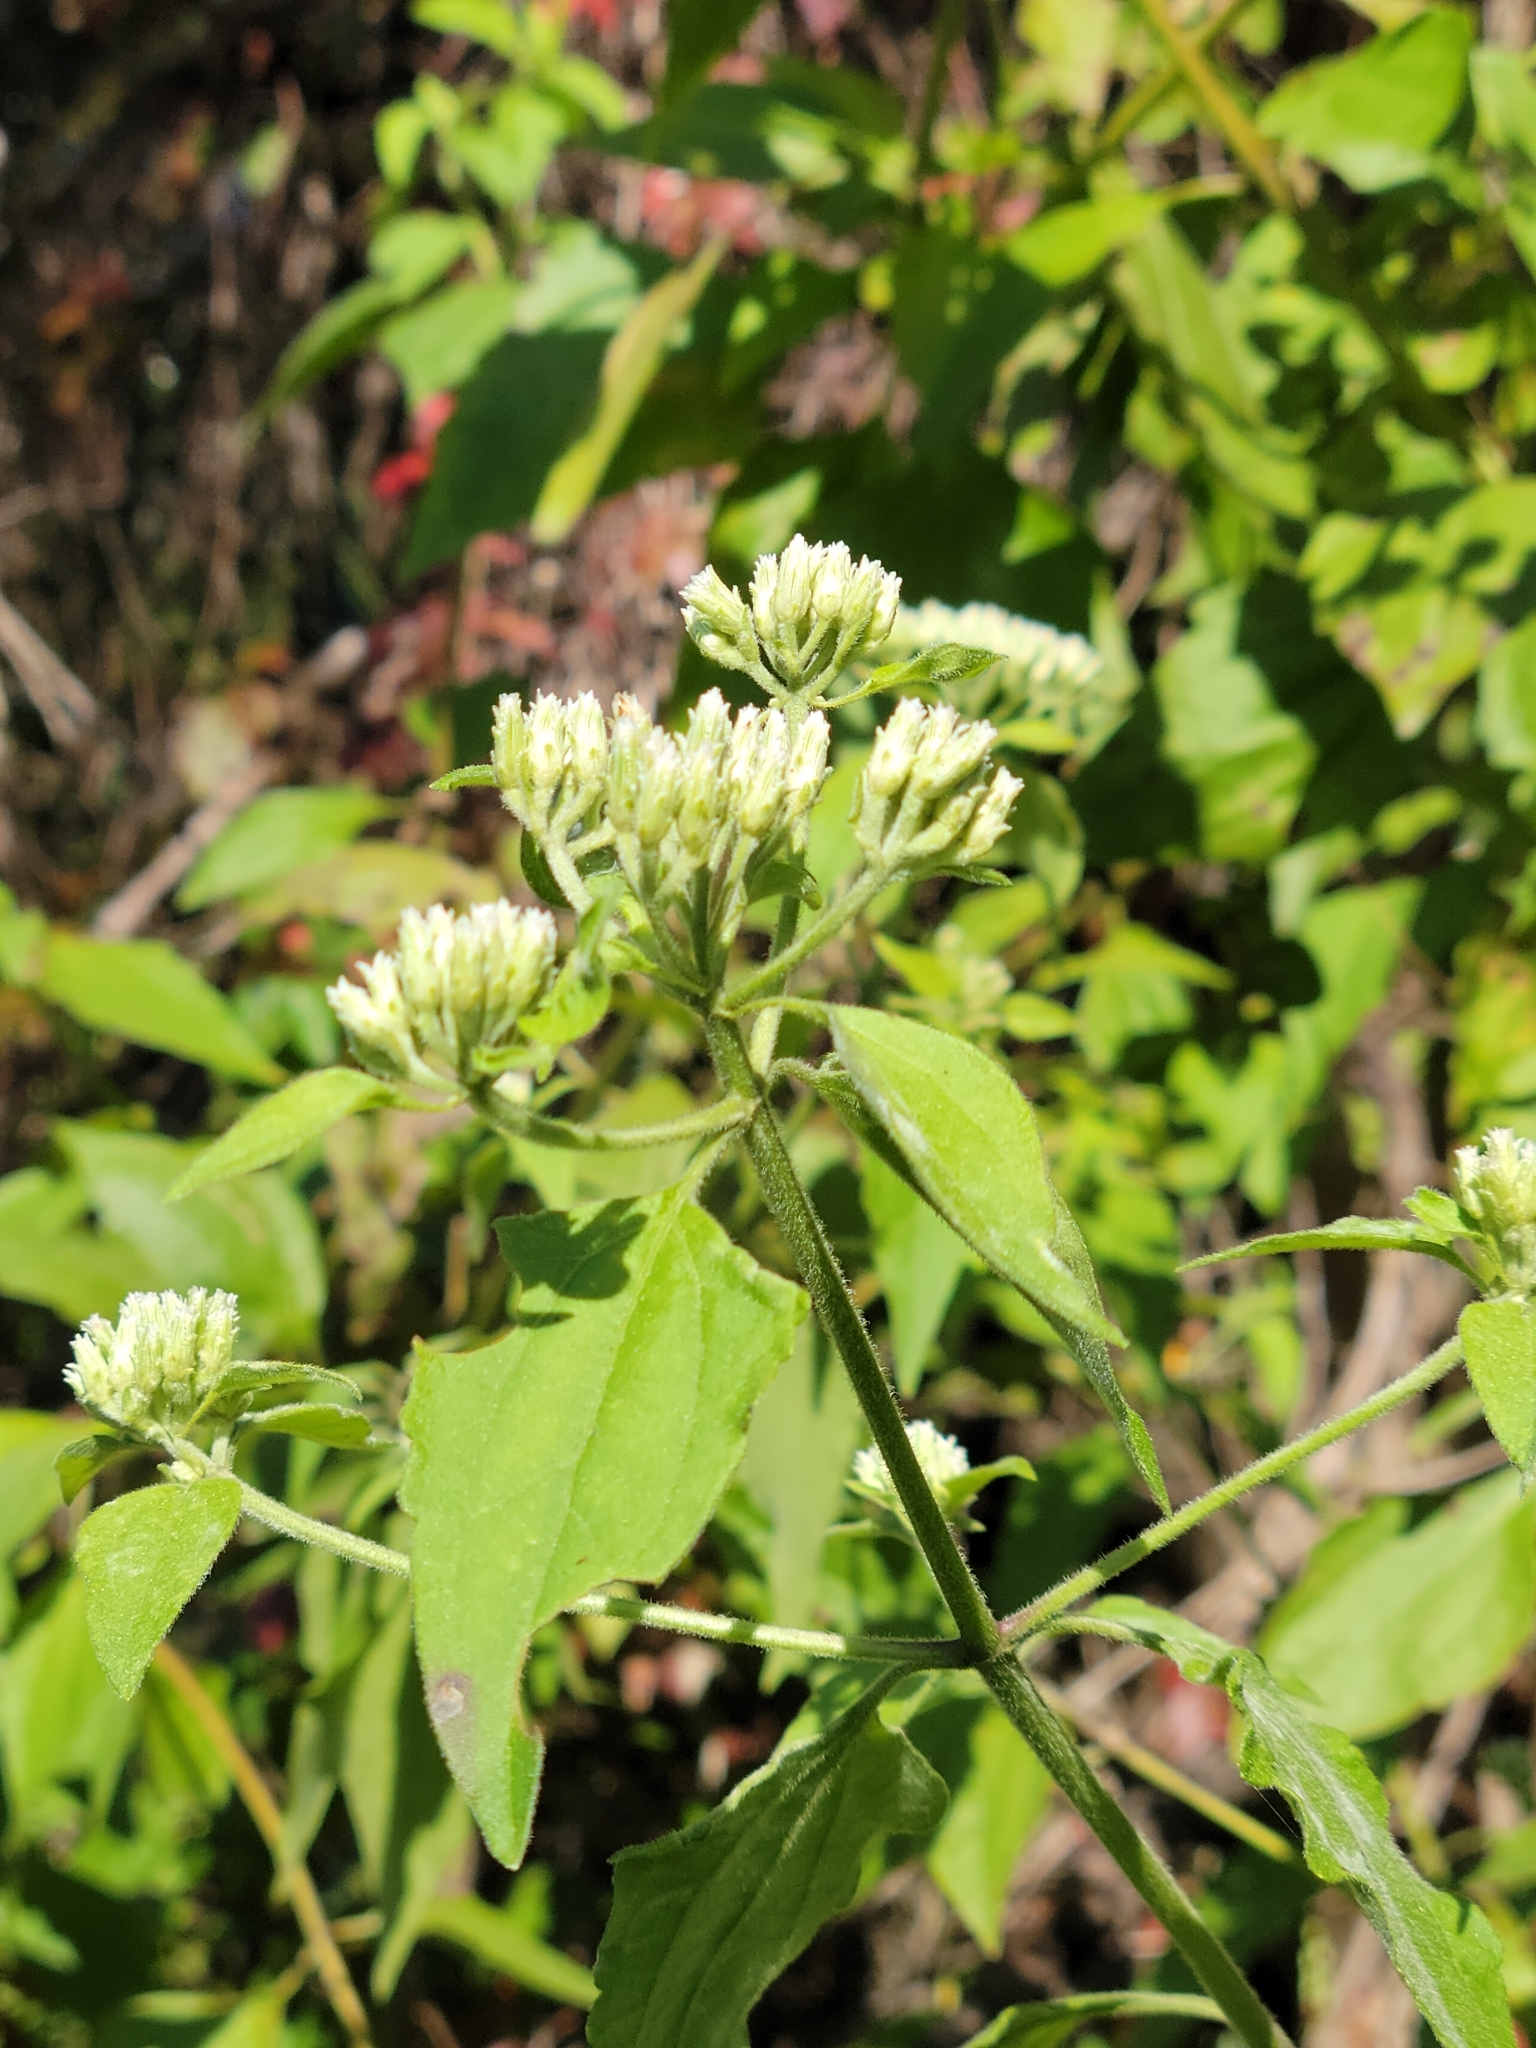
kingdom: Plantae
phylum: Tracheophyta
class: Magnoliopsida
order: Asterales
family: Asteraceae
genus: Chromolaena
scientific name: Chromolaena odorata
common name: Siamweed
